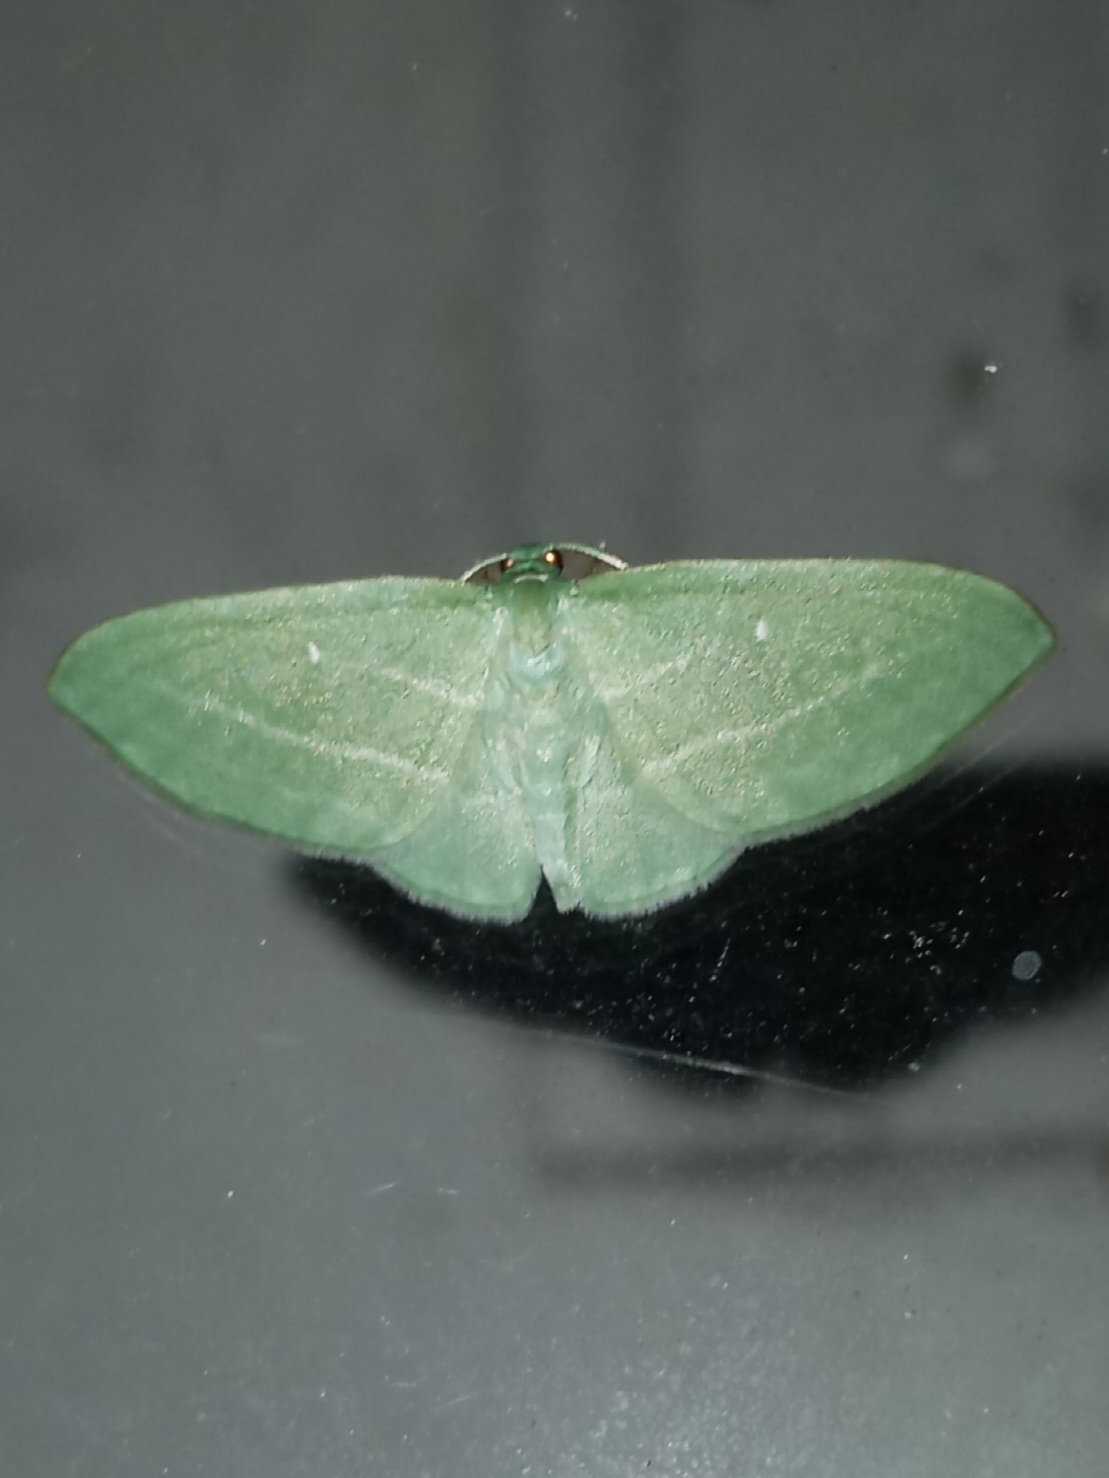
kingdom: Animalia
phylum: Arthropoda
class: Insecta
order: Lepidoptera
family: Geometridae
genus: Dyspteris
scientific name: Dyspteris abortivaria
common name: Bad-wing
